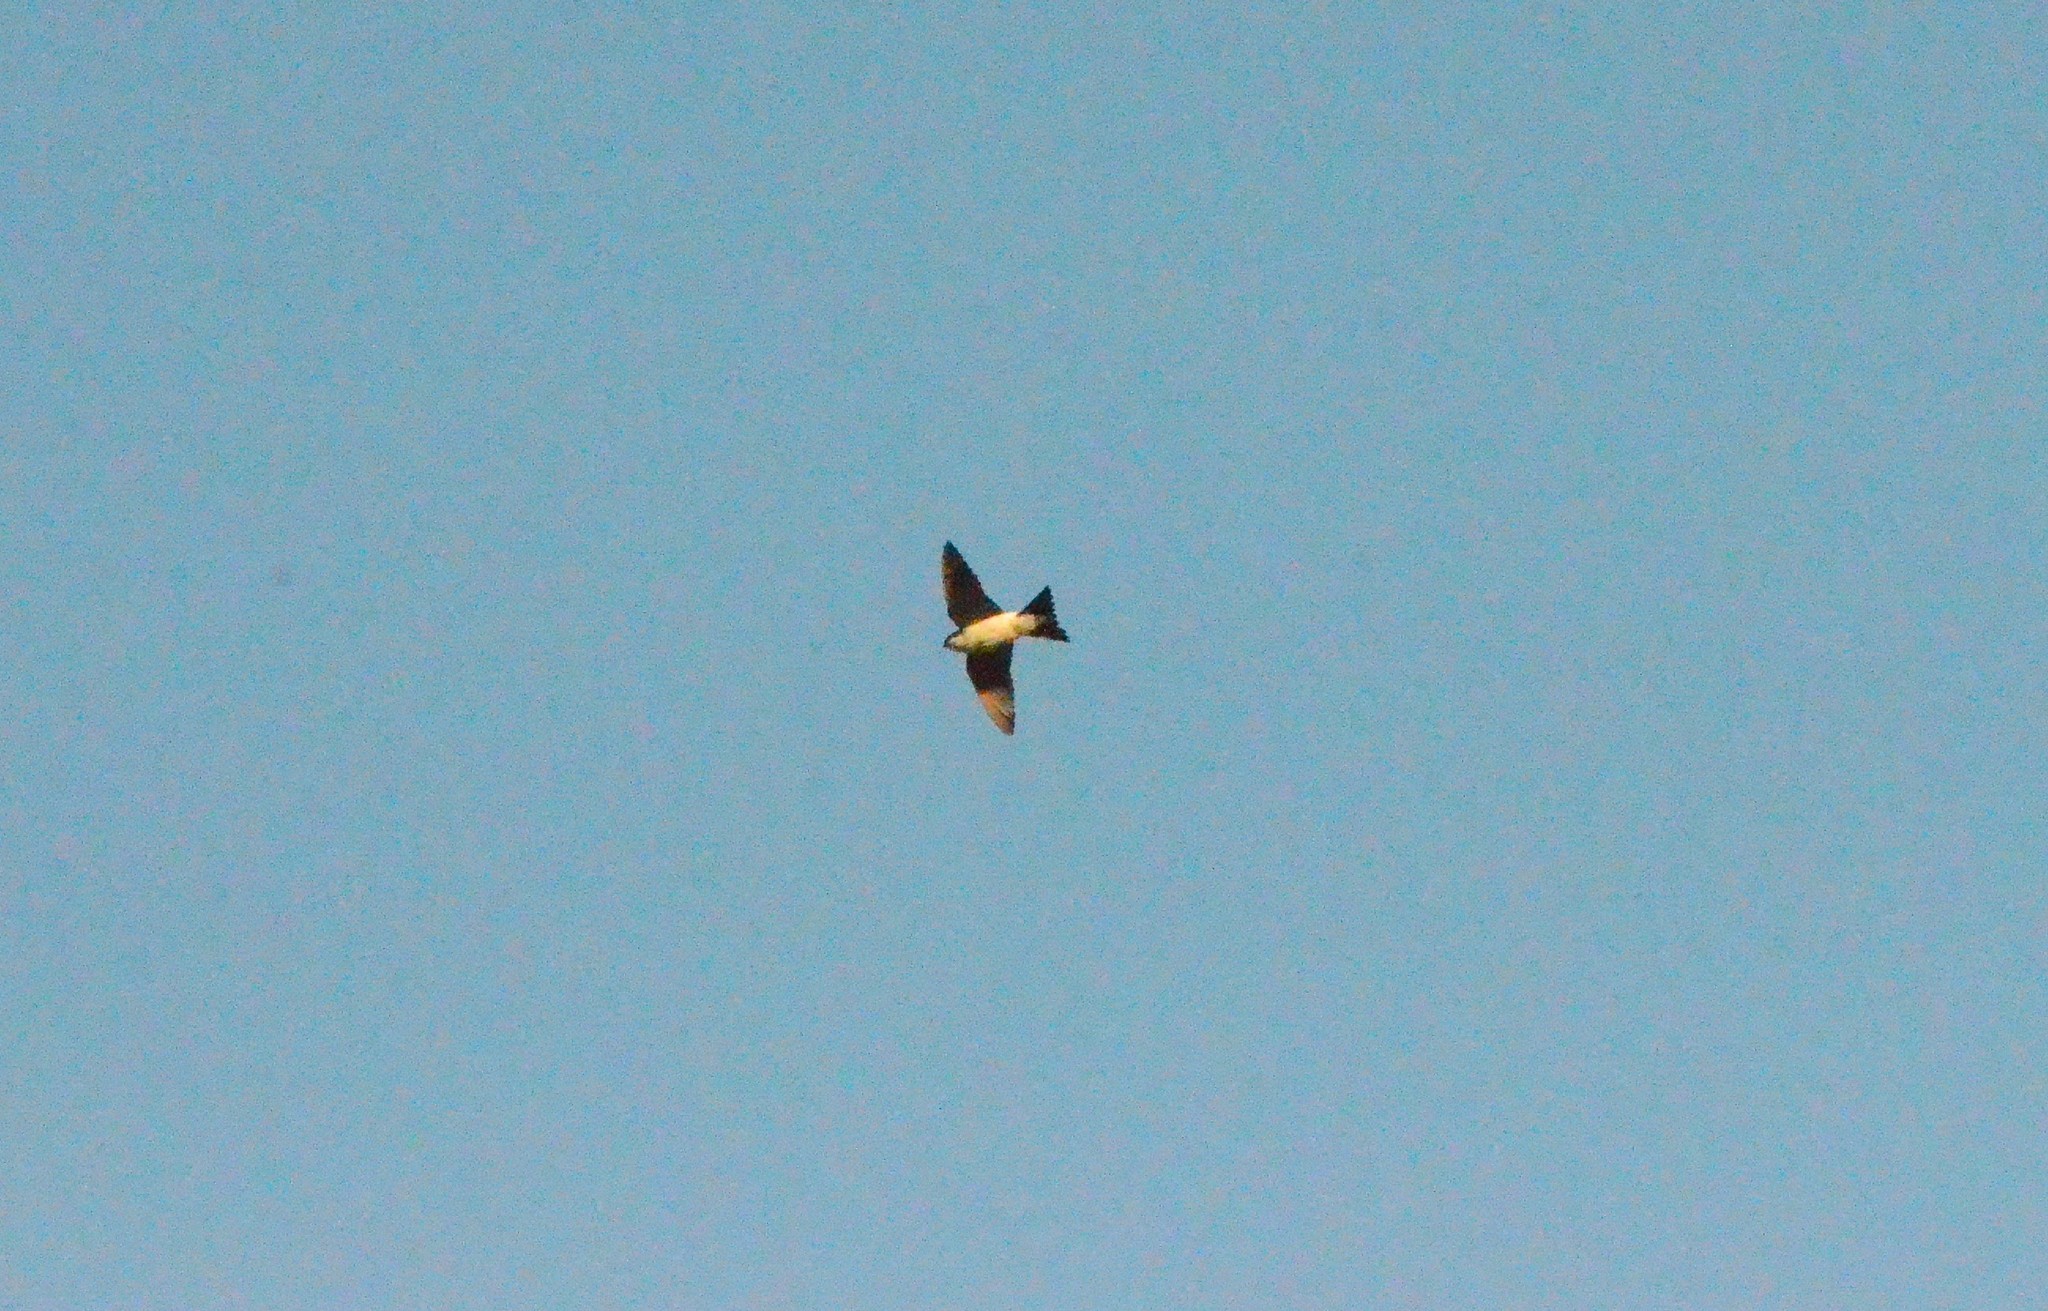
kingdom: Animalia
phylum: Chordata
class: Aves
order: Passeriformes
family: Hirundinidae
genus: Delichon
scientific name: Delichon urbicum
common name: Common house martin
